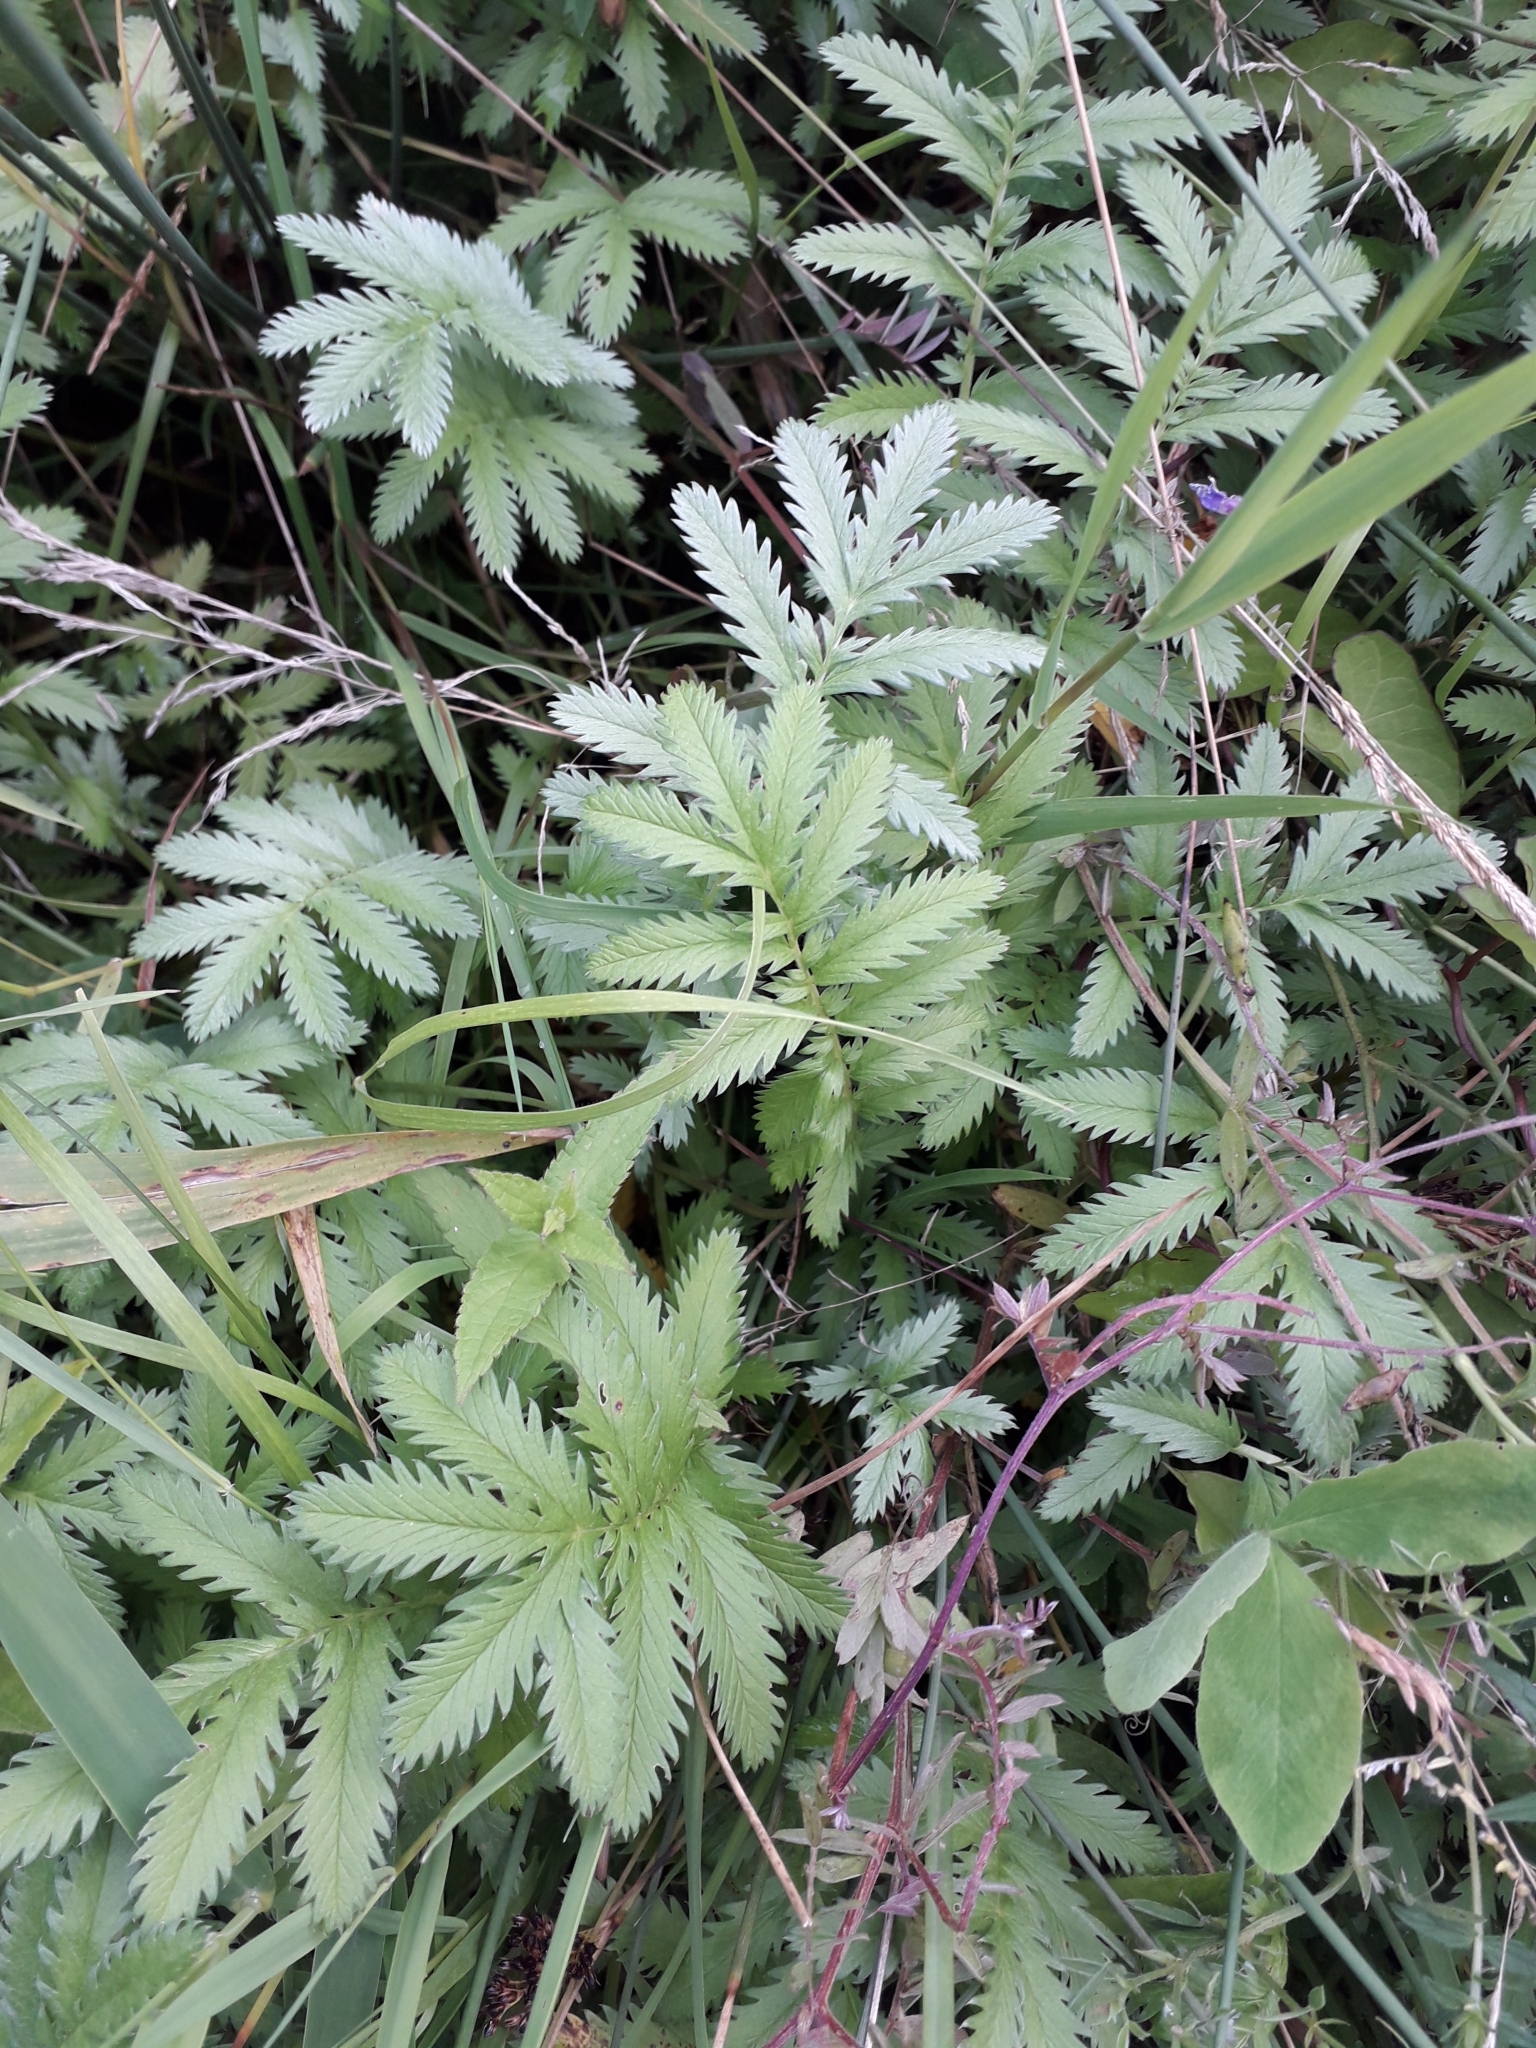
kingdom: Plantae
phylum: Tracheophyta
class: Magnoliopsida
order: Rosales
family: Rosaceae
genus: Argentina
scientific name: Argentina anserina
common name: Common silverweed
